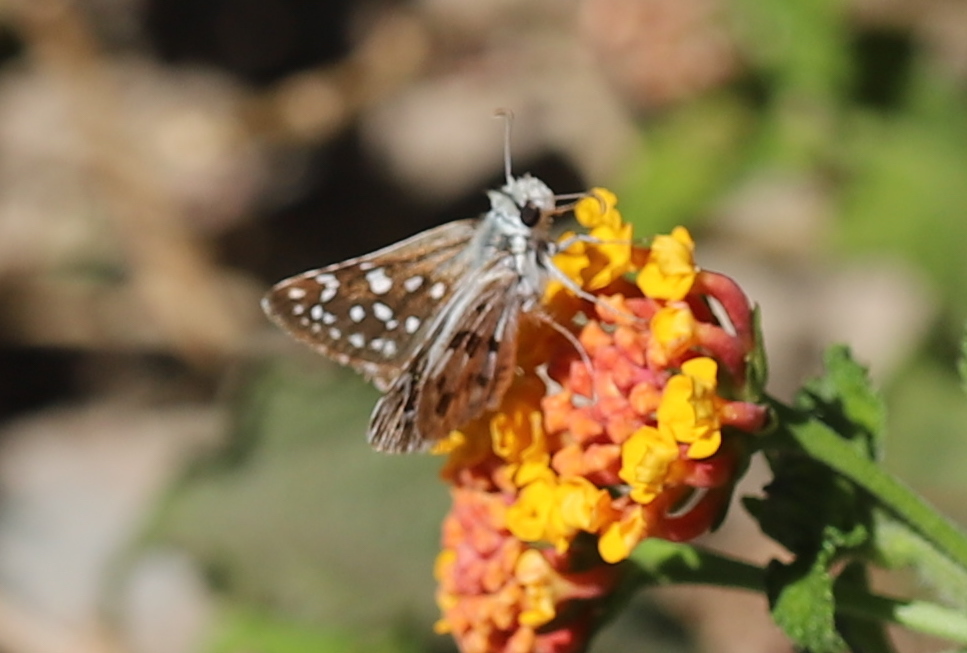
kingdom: Animalia
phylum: Arthropoda
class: Insecta
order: Lepidoptera
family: Hesperiidae
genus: Chirgus
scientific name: Chirgus fides
